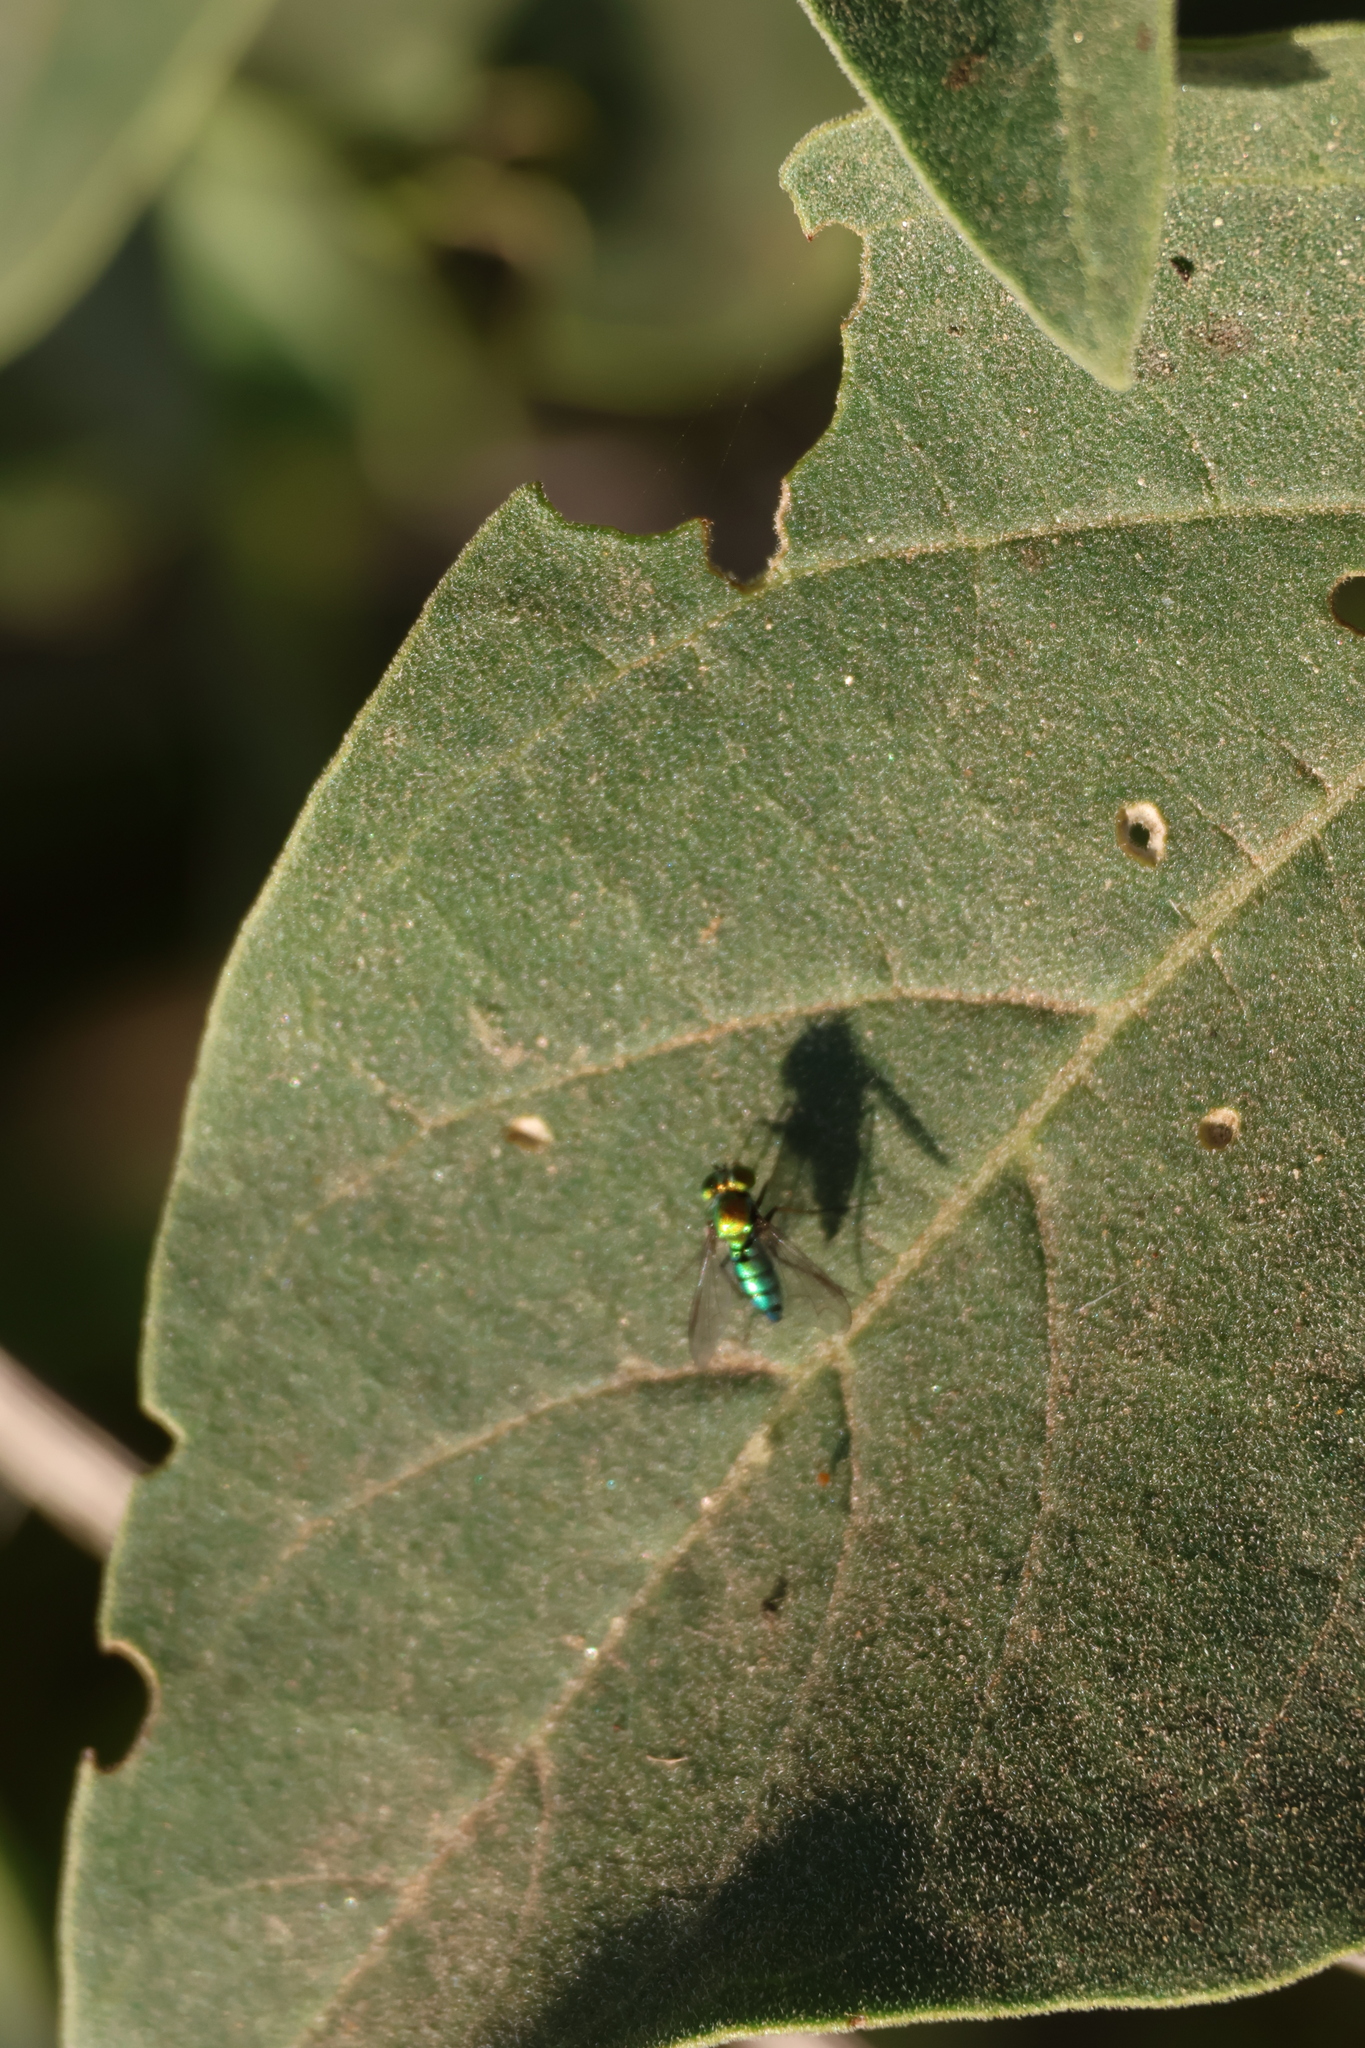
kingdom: Animalia
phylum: Arthropoda
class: Insecta
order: Diptera
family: Dolichopodidae
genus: Condylostylus
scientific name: Condylostylus longicornis
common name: Long-legged fly
